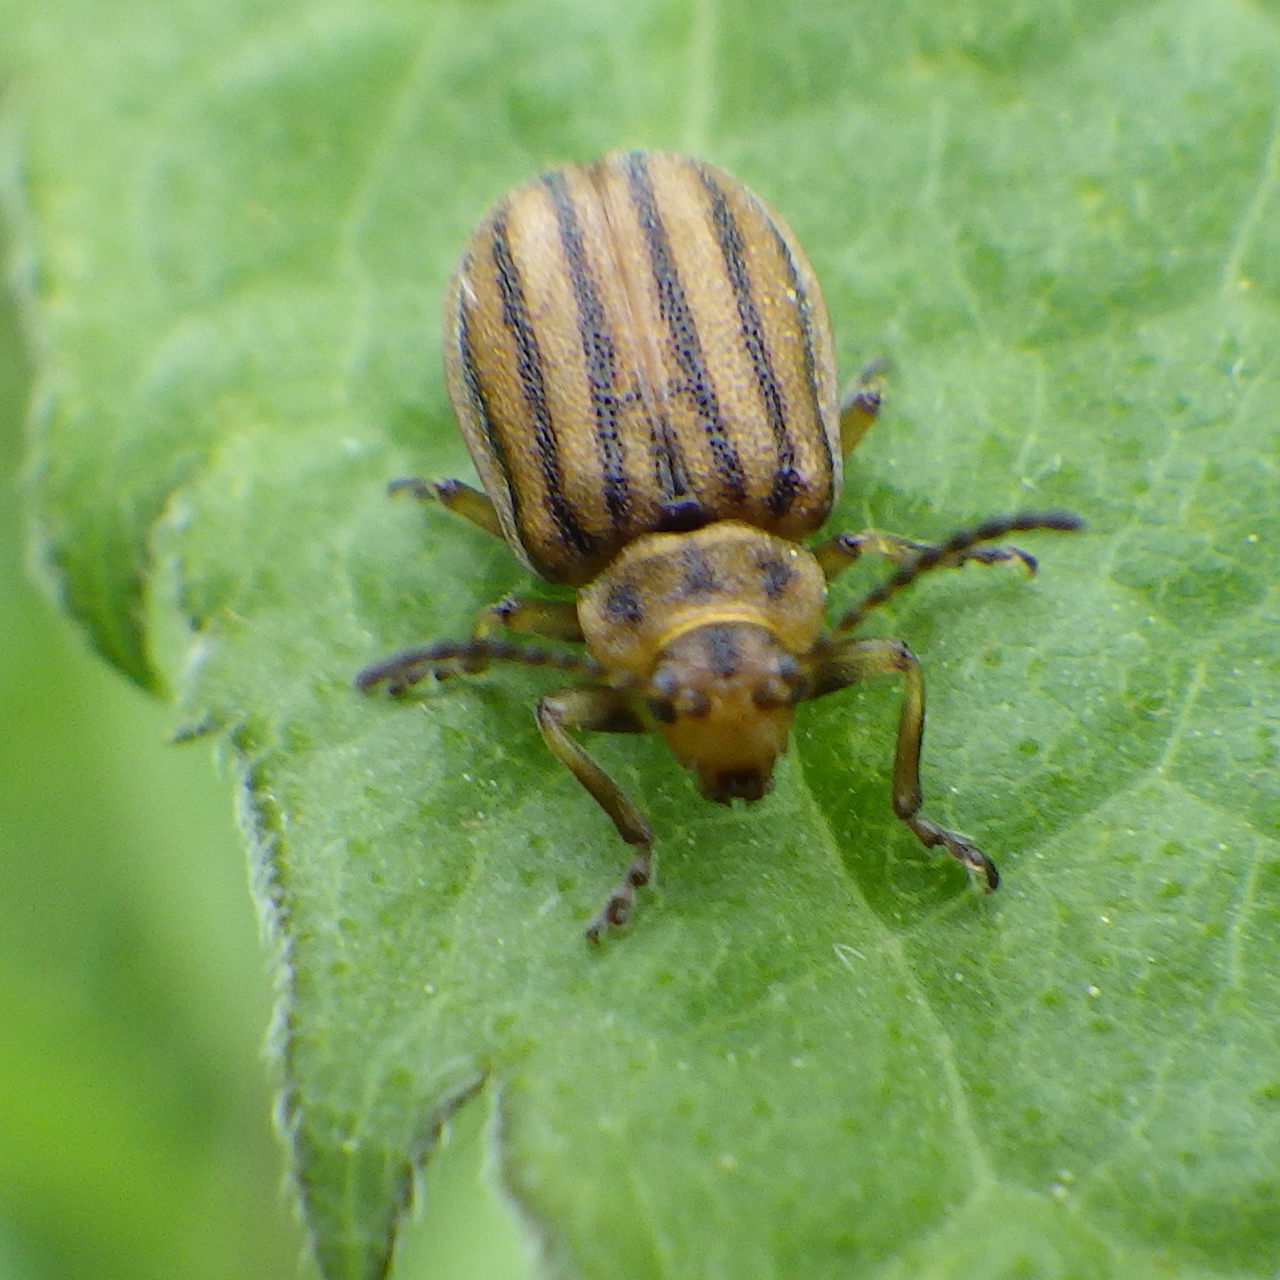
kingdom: Animalia
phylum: Arthropoda
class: Insecta
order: Coleoptera
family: Chrysomelidae
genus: Ophraella
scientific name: Ophraella conferta
